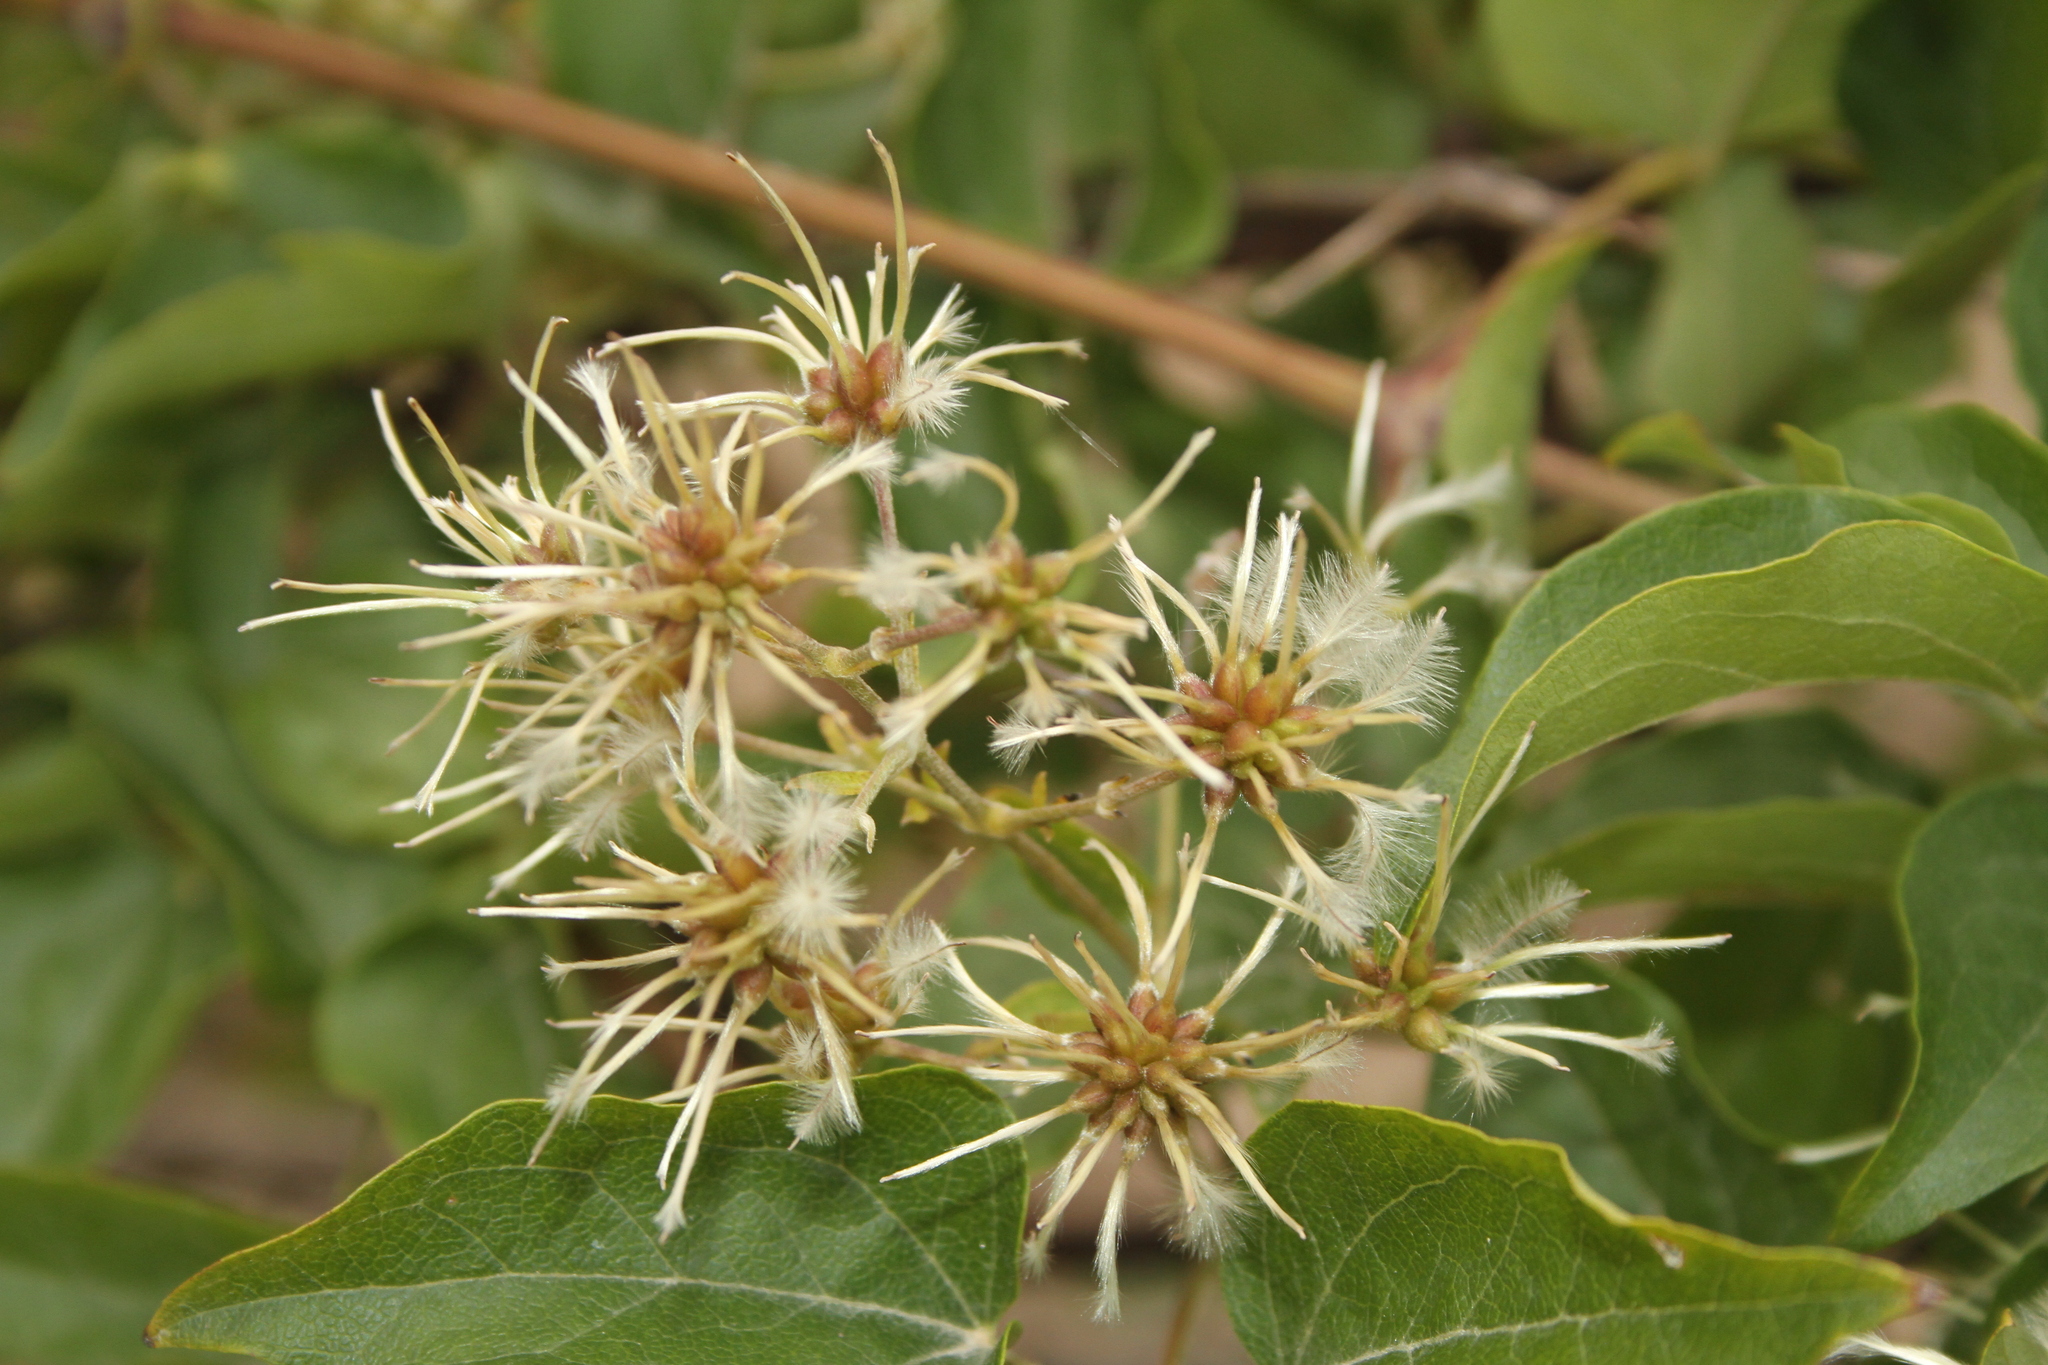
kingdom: Plantae
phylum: Tracheophyta
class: Magnoliopsida
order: Ranunculales
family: Ranunculaceae
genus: Clematis
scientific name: Clematis vitalba
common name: Evergreen clematis
